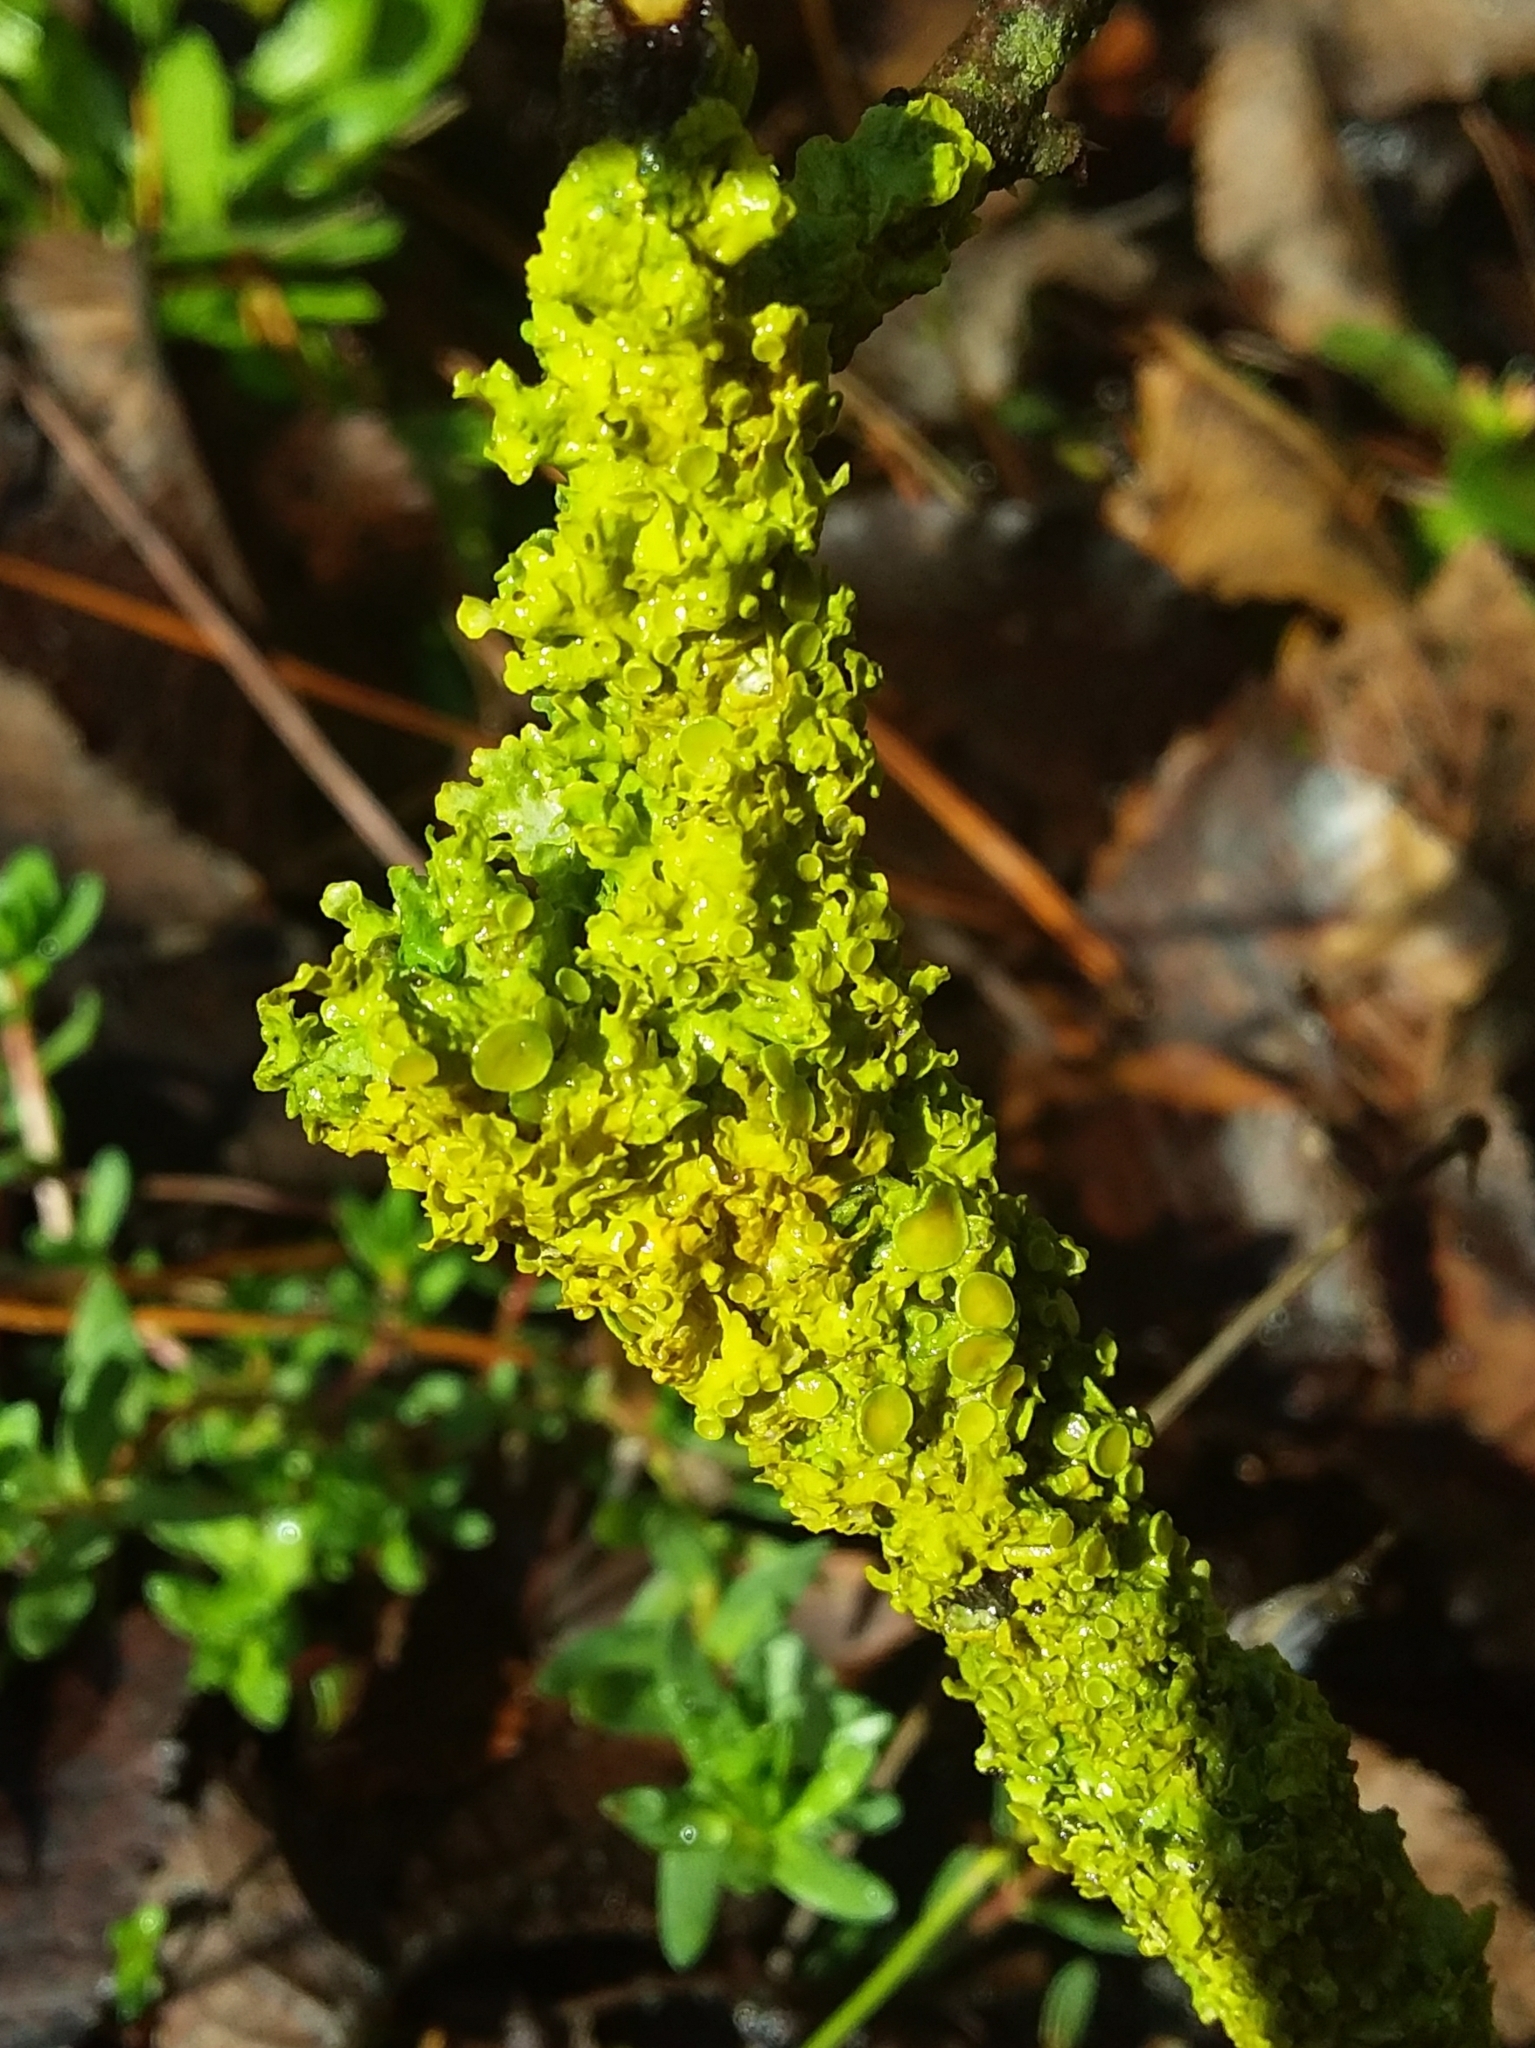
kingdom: Fungi
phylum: Ascomycota
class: Lecanoromycetes
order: Teloschistales
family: Teloschistaceae
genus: Xanthoria
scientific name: Xanthoria parietina
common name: Common orange lichen
